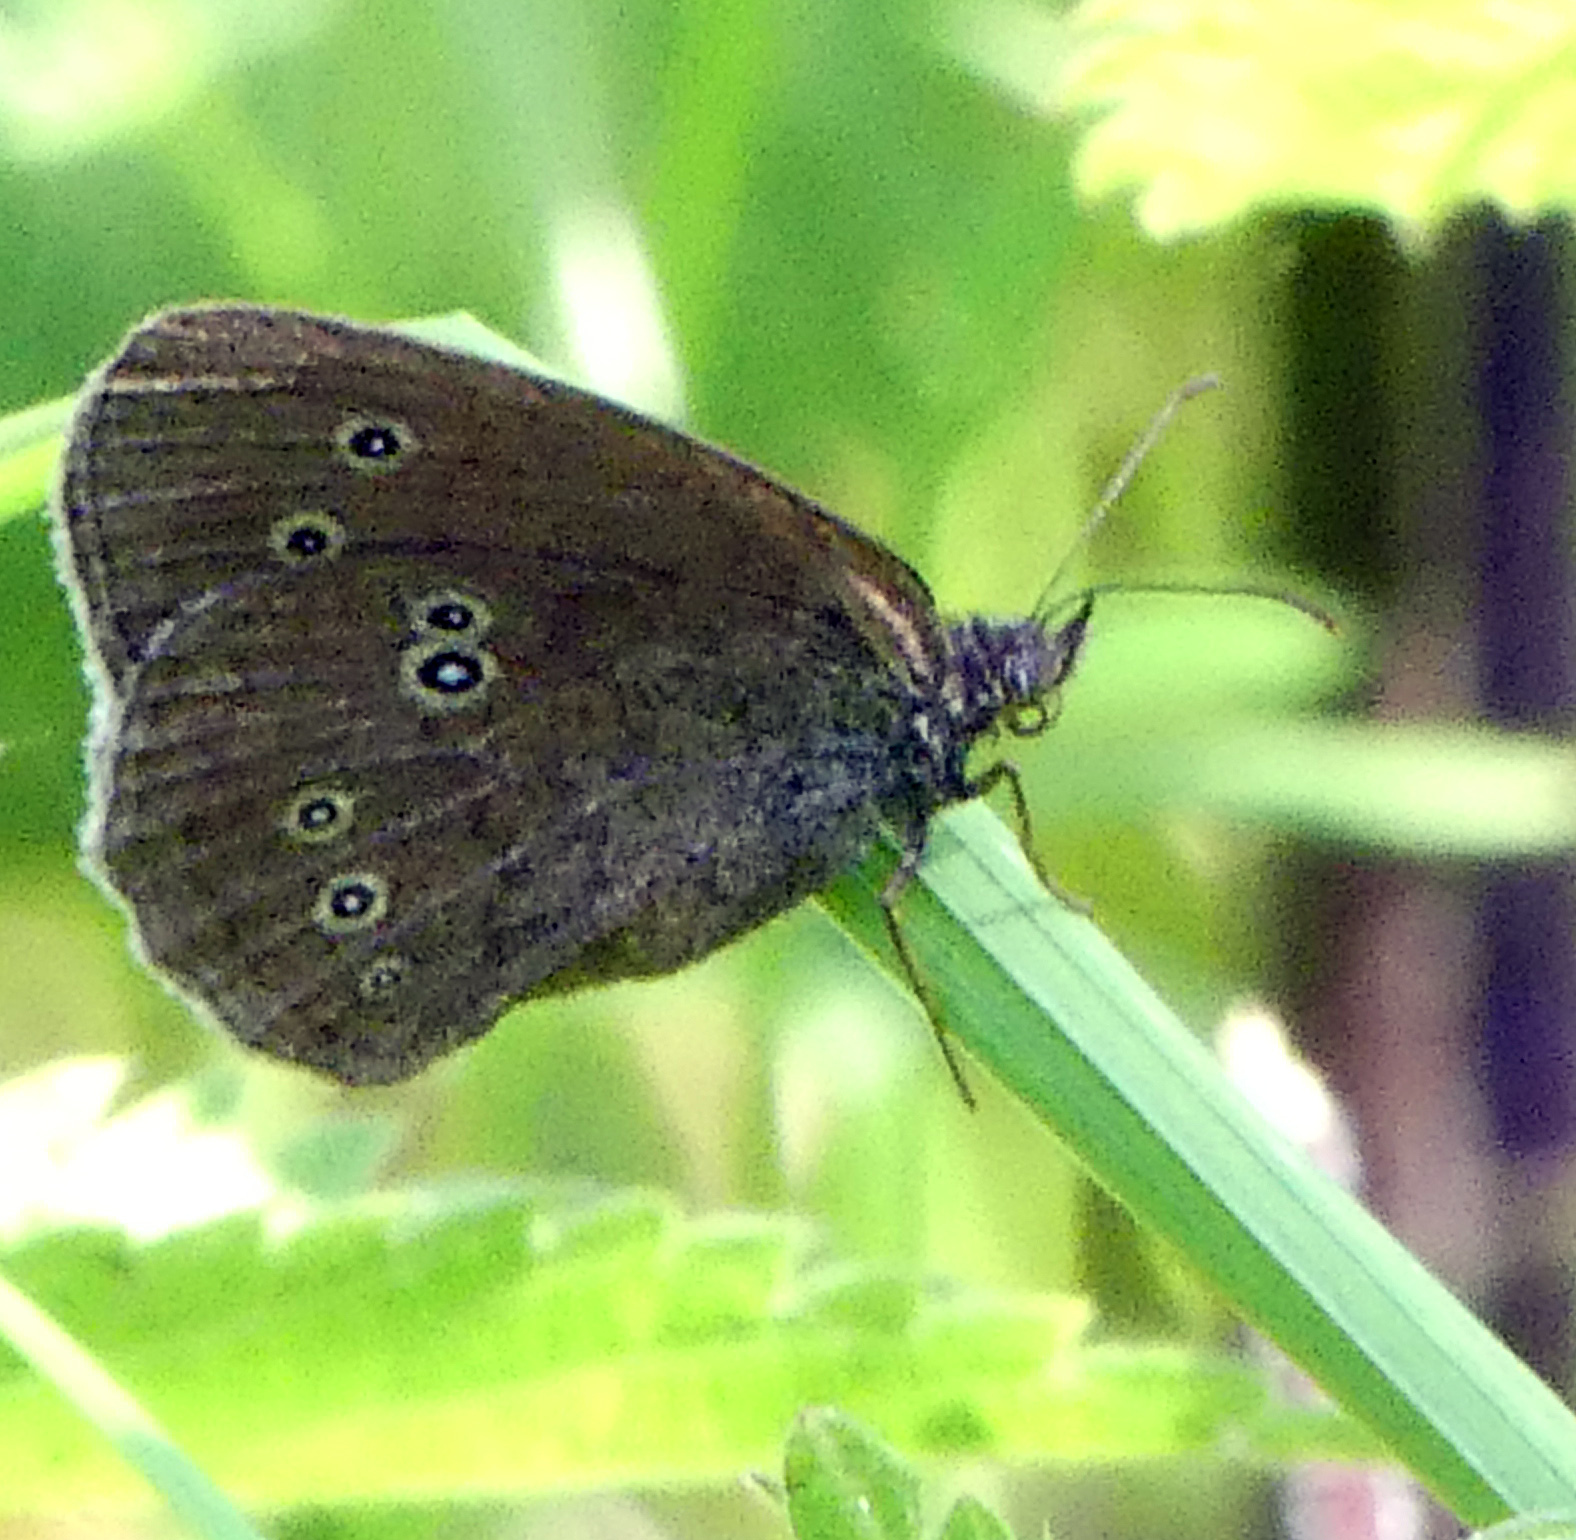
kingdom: Animalia
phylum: Arthropoda
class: Insecta
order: Lepidoptera
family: Nymphalidae
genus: Aphantopus
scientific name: Aphantopus hyperantus
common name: Ringlet
